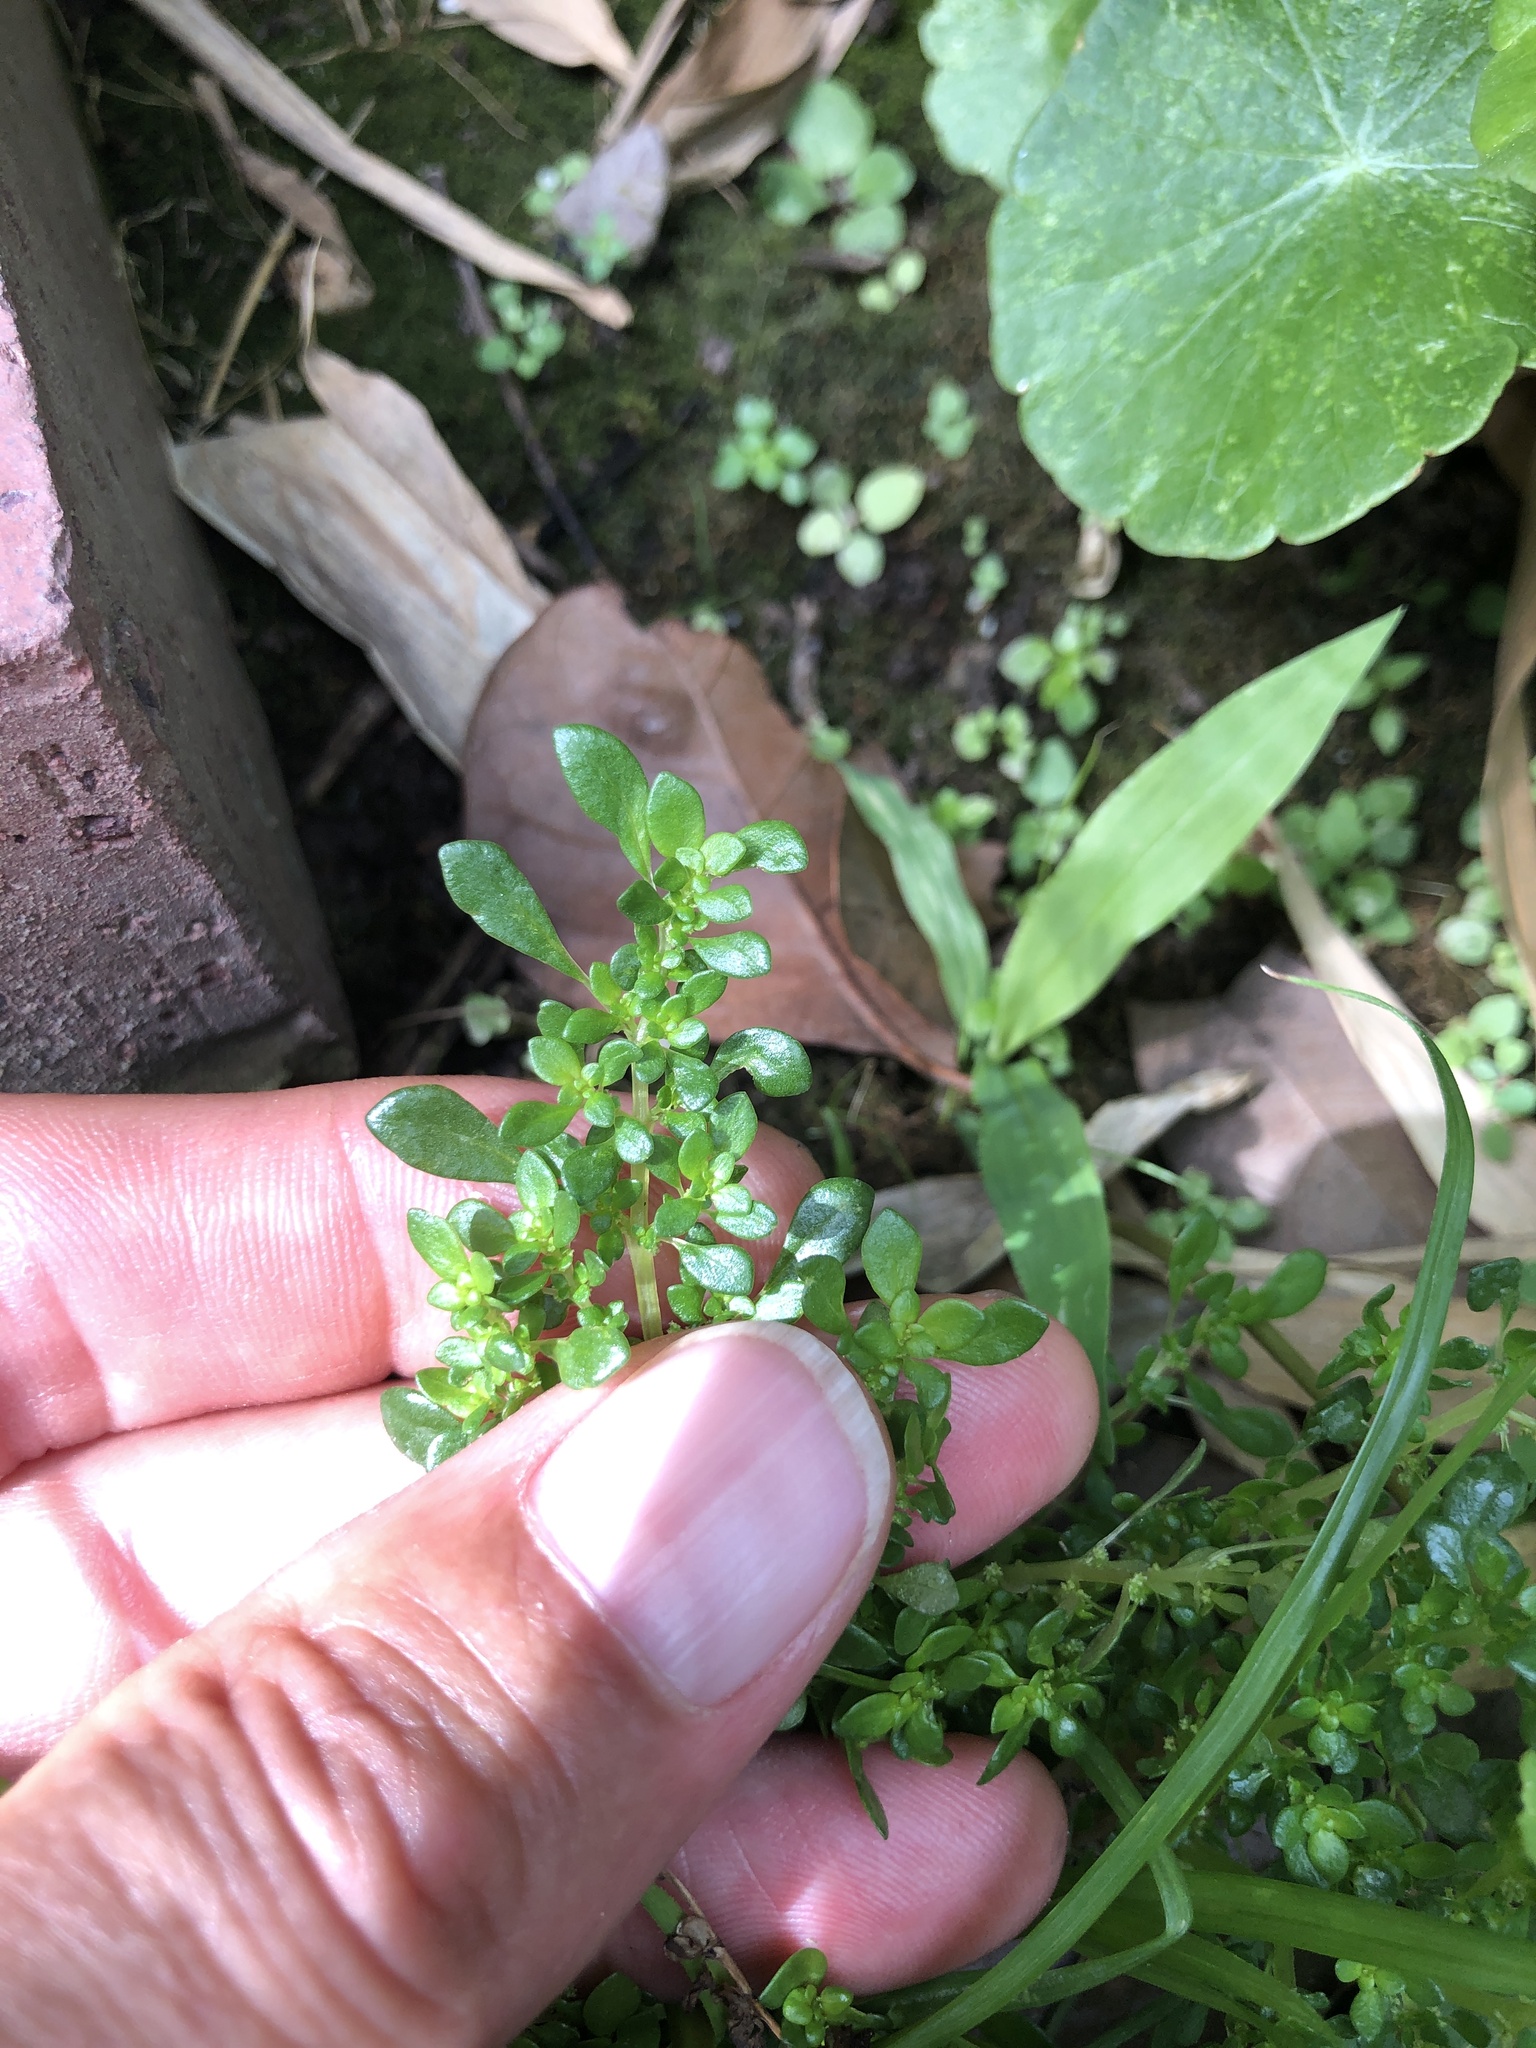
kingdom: Plantae
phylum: Tracheophyta
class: Magnoliopsida
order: Rosales
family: Urticaceae
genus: Pilea
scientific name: Pilea microphylla
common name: Artillery-plant
